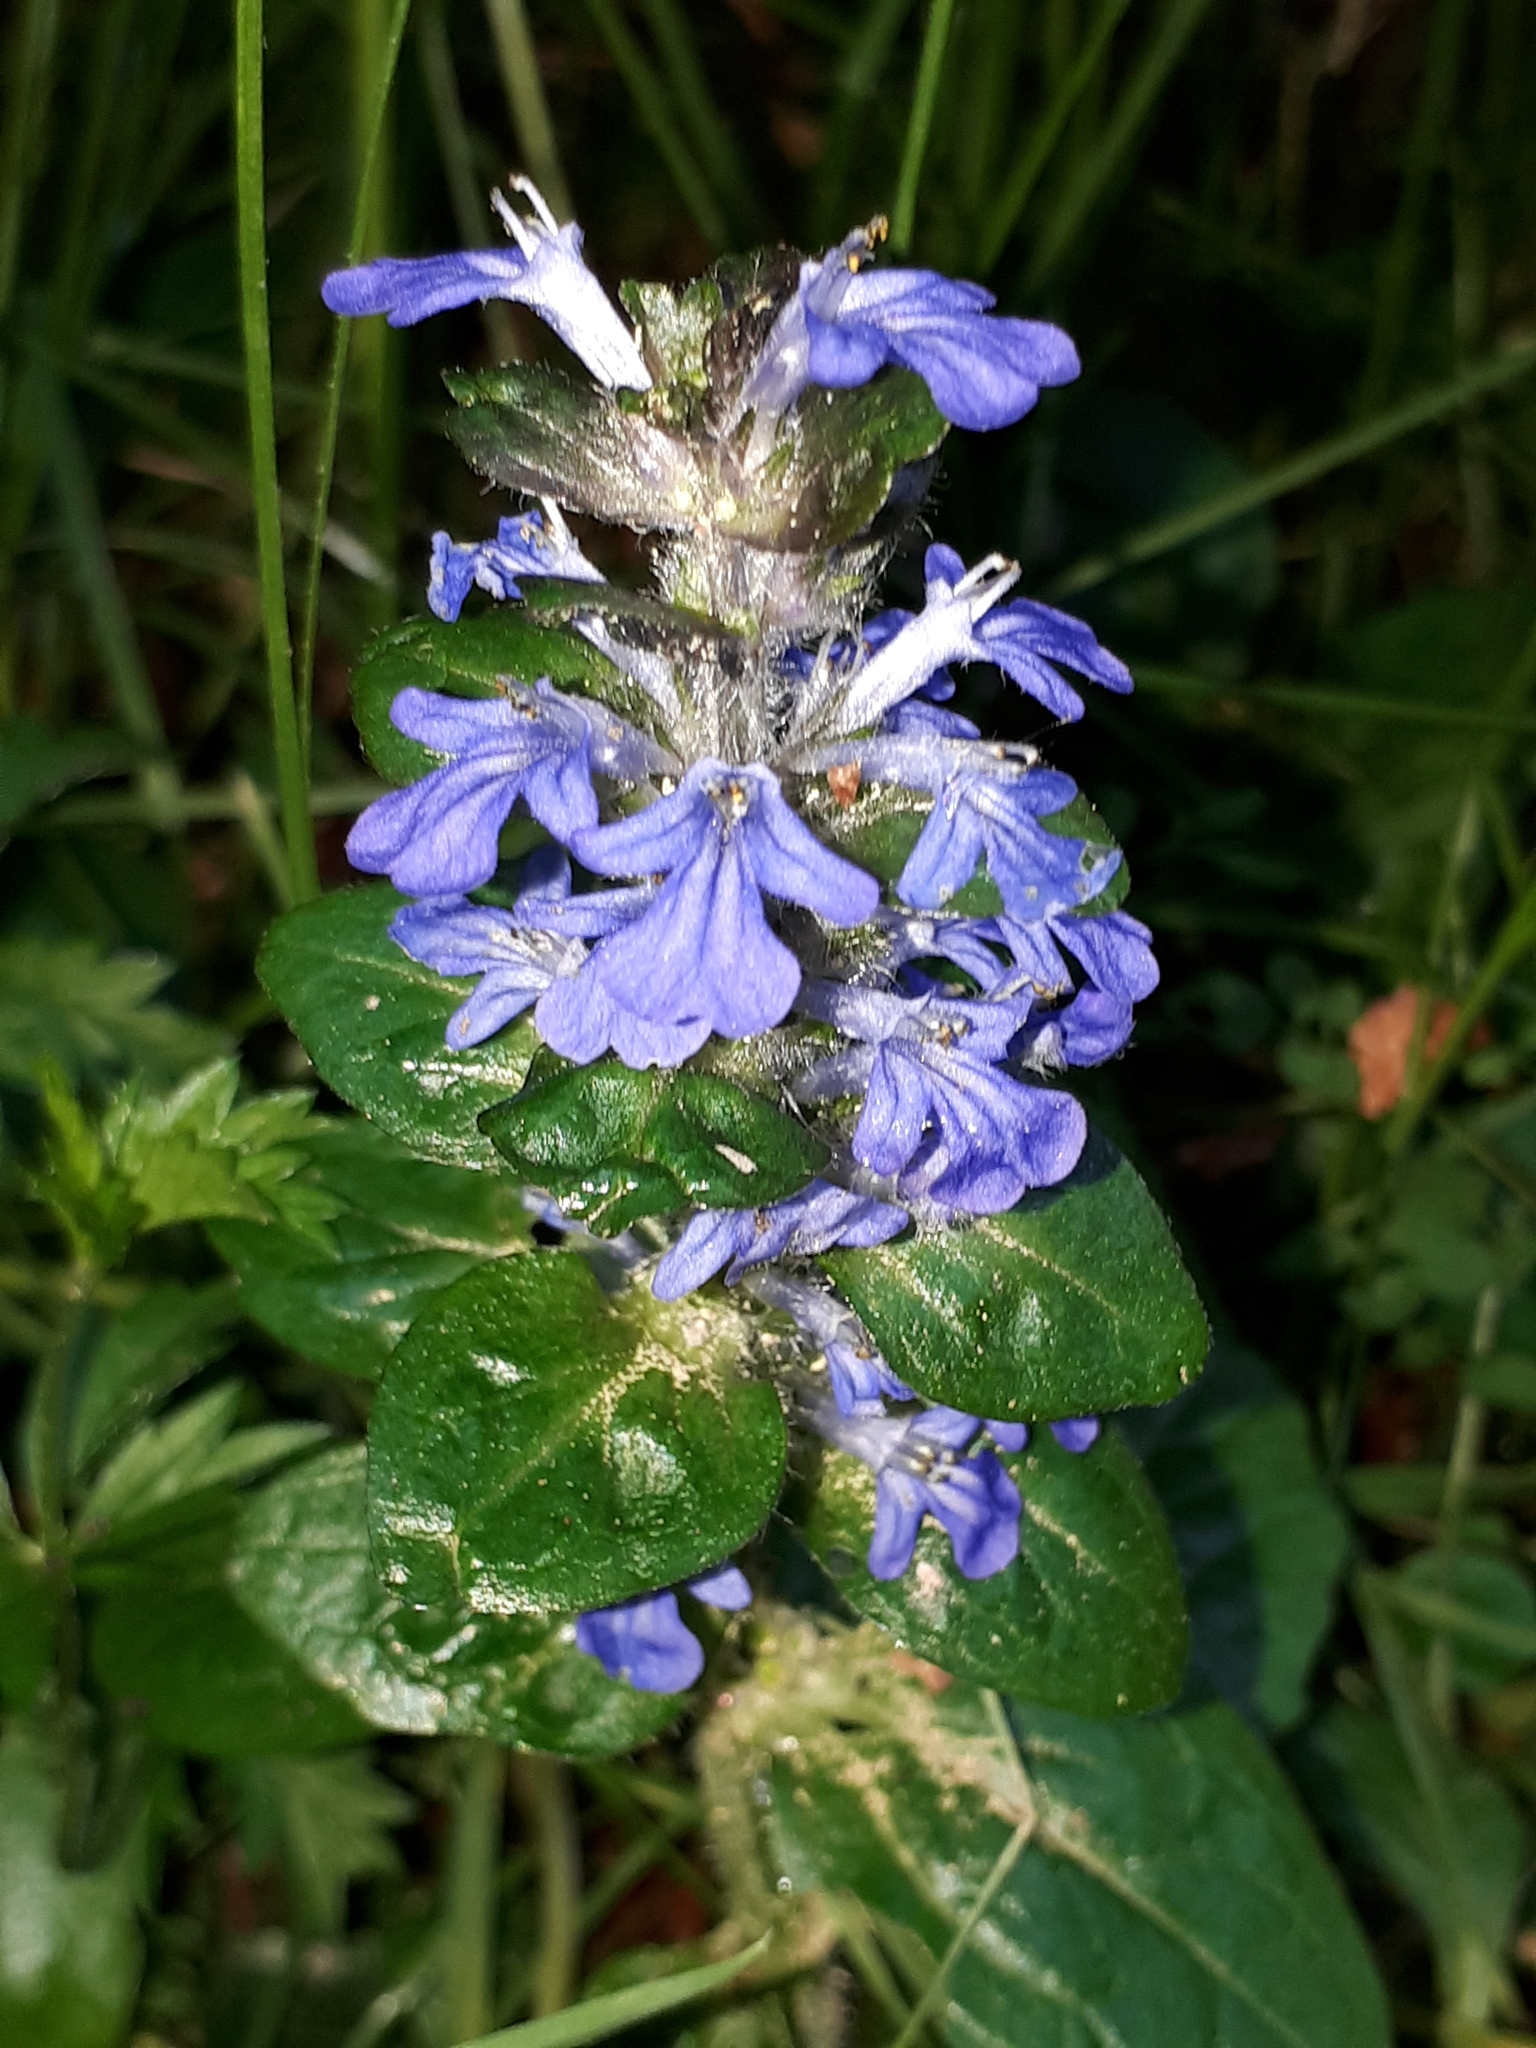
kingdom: Plantae
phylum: Tracheophyta
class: Magnoliopsida
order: Lamiales
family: Lamiaceae
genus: Ajuga
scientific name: Ajuga reptans
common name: Bugle
